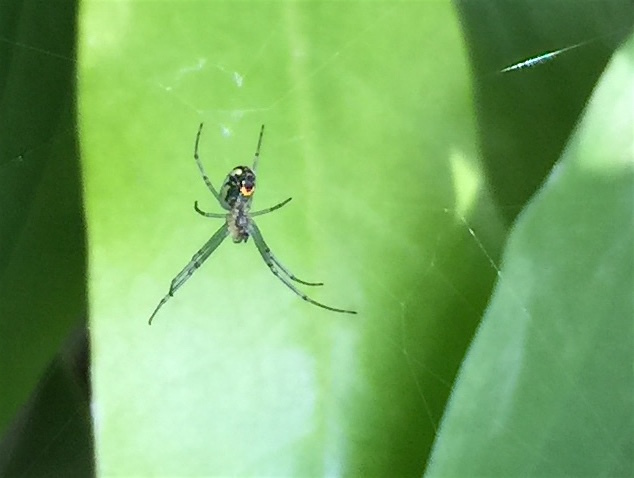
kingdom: Animalia
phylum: Arthropoda
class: Arachnida
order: Araneae
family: Tetragnathidae
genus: Leucauge
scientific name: Leucauge venusta
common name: Longjawed orb weavers
